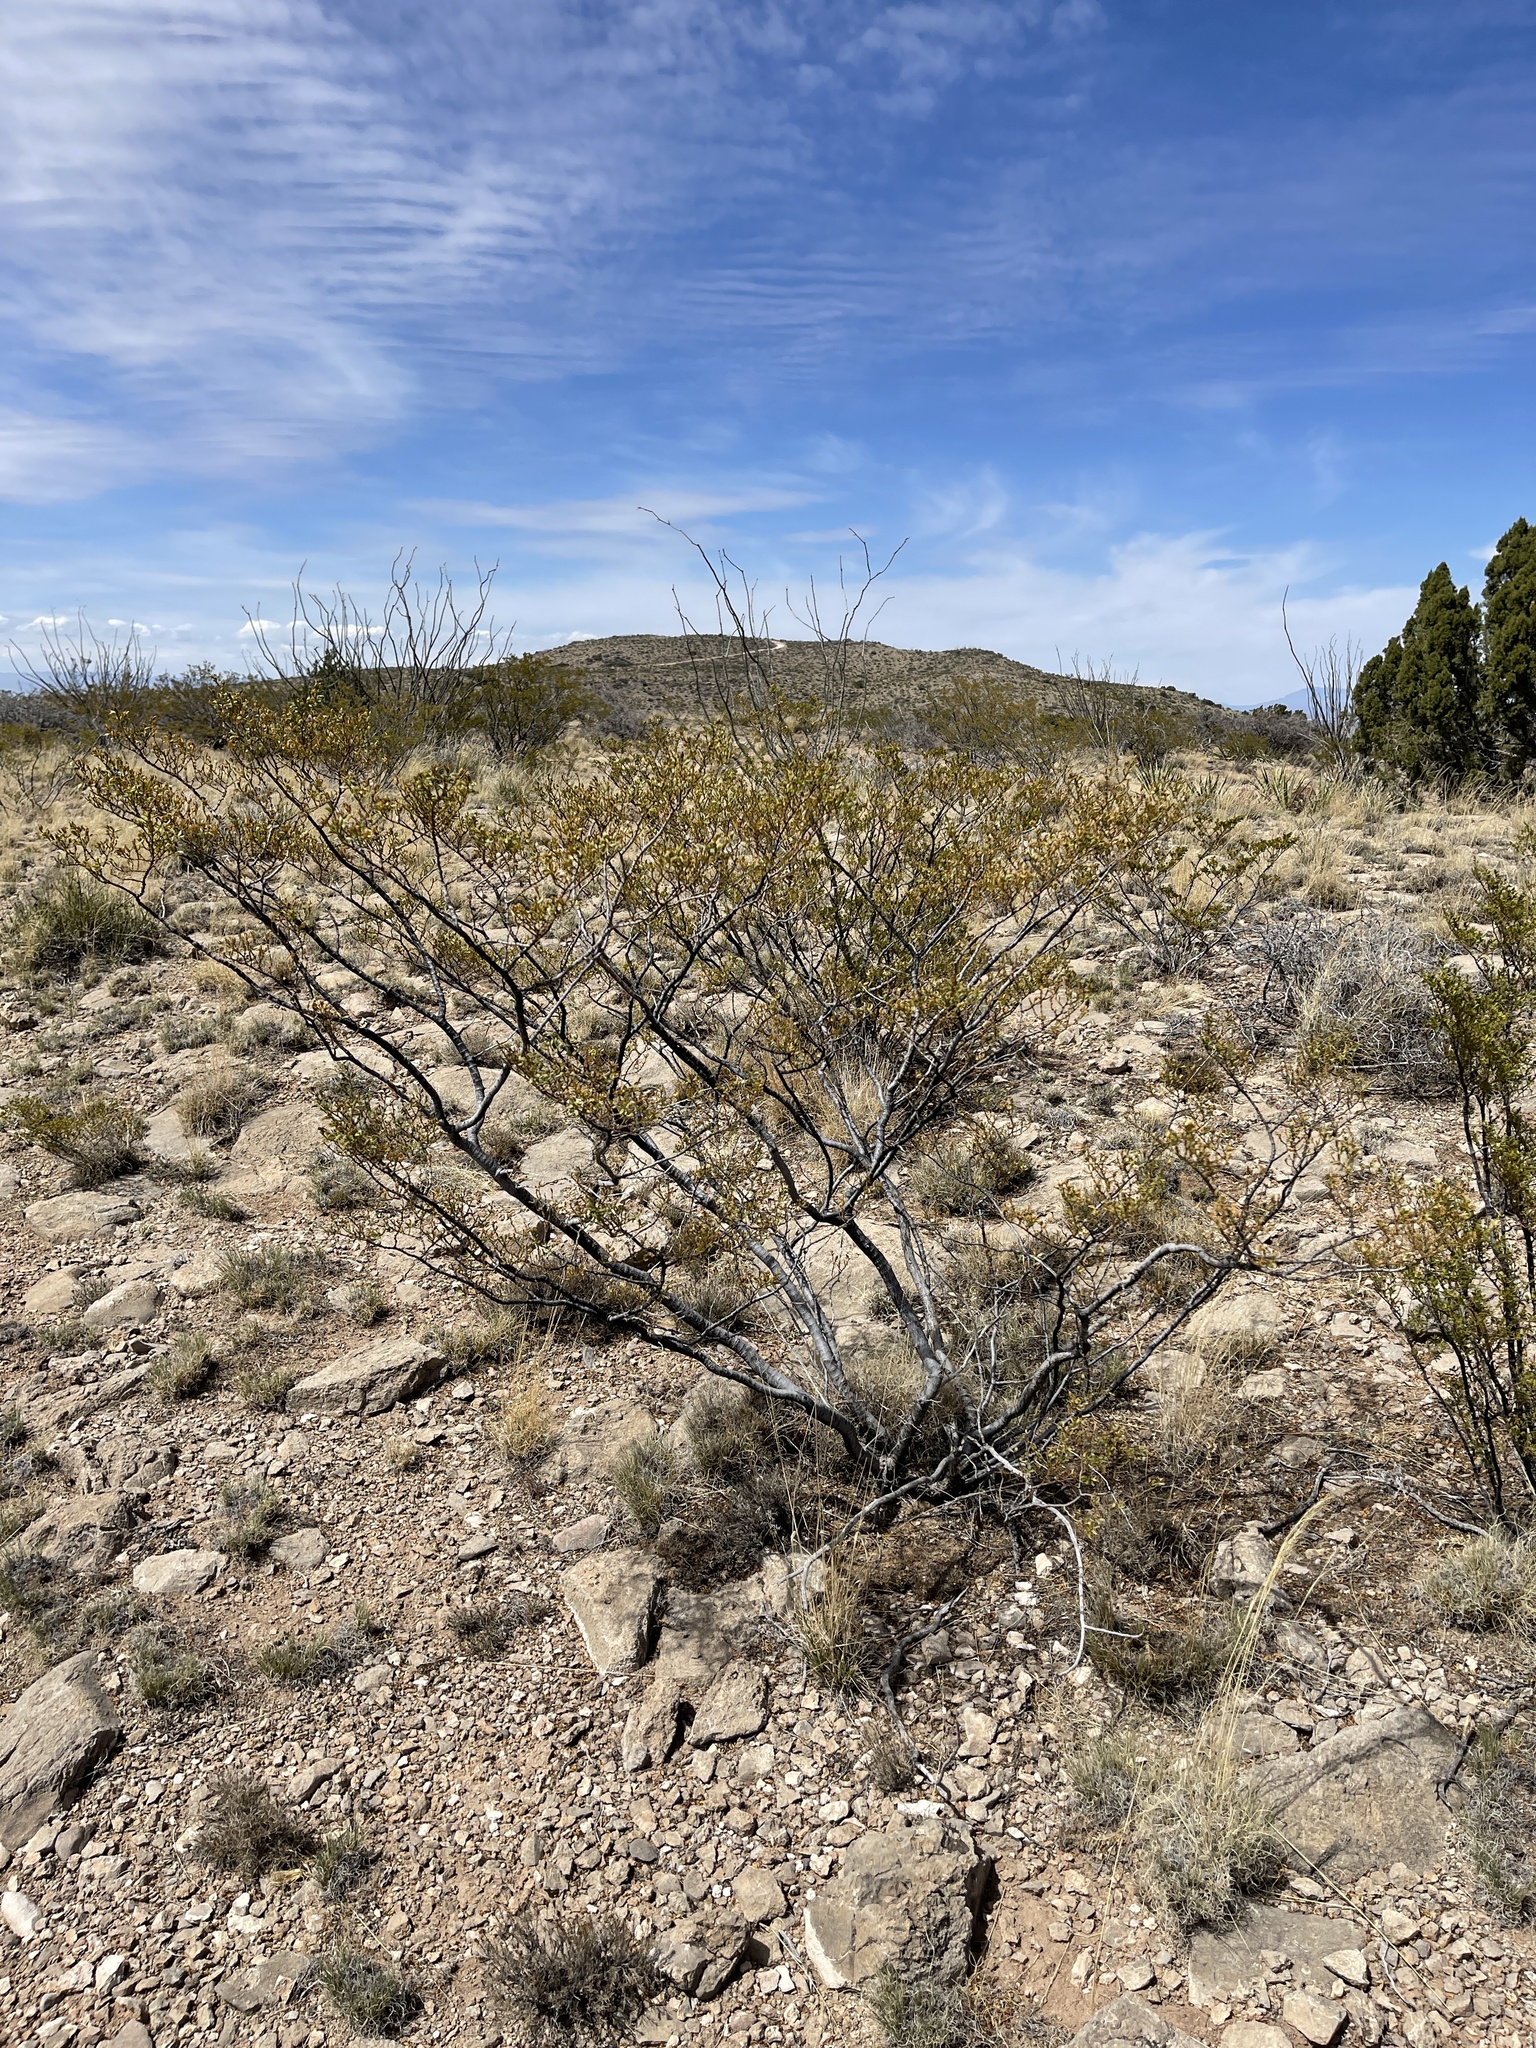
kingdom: Plantae
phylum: Tracheophyta
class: Magnoliopsida
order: Zygophyllales
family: Zygophyllaceae
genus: Larrea
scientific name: Larrea tridentata
